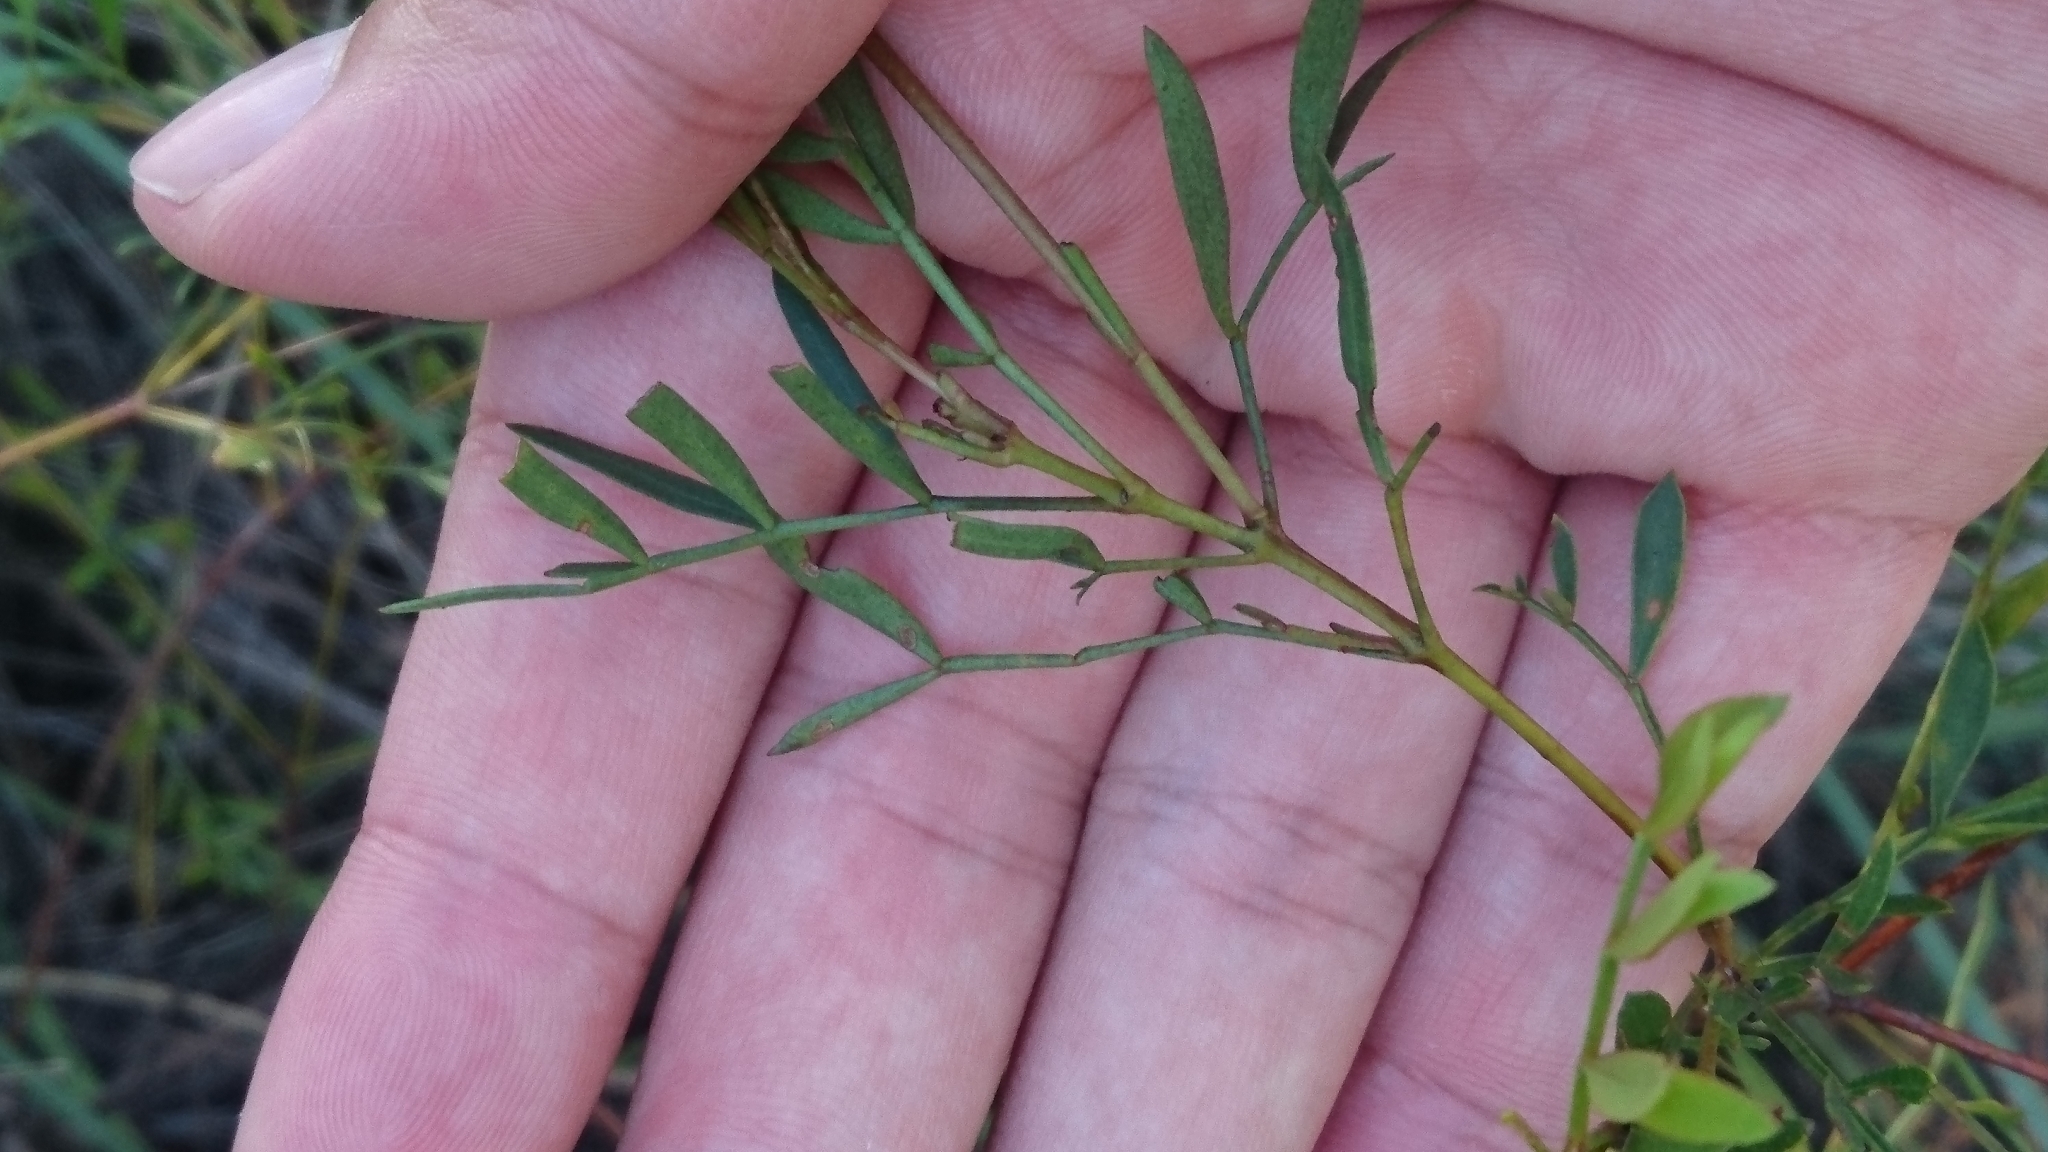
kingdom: Plantae
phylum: Tracheophyta
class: Magnoliopsida
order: Sapindales
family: Rutaceae
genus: Boronia
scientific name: Boronia rivularis
